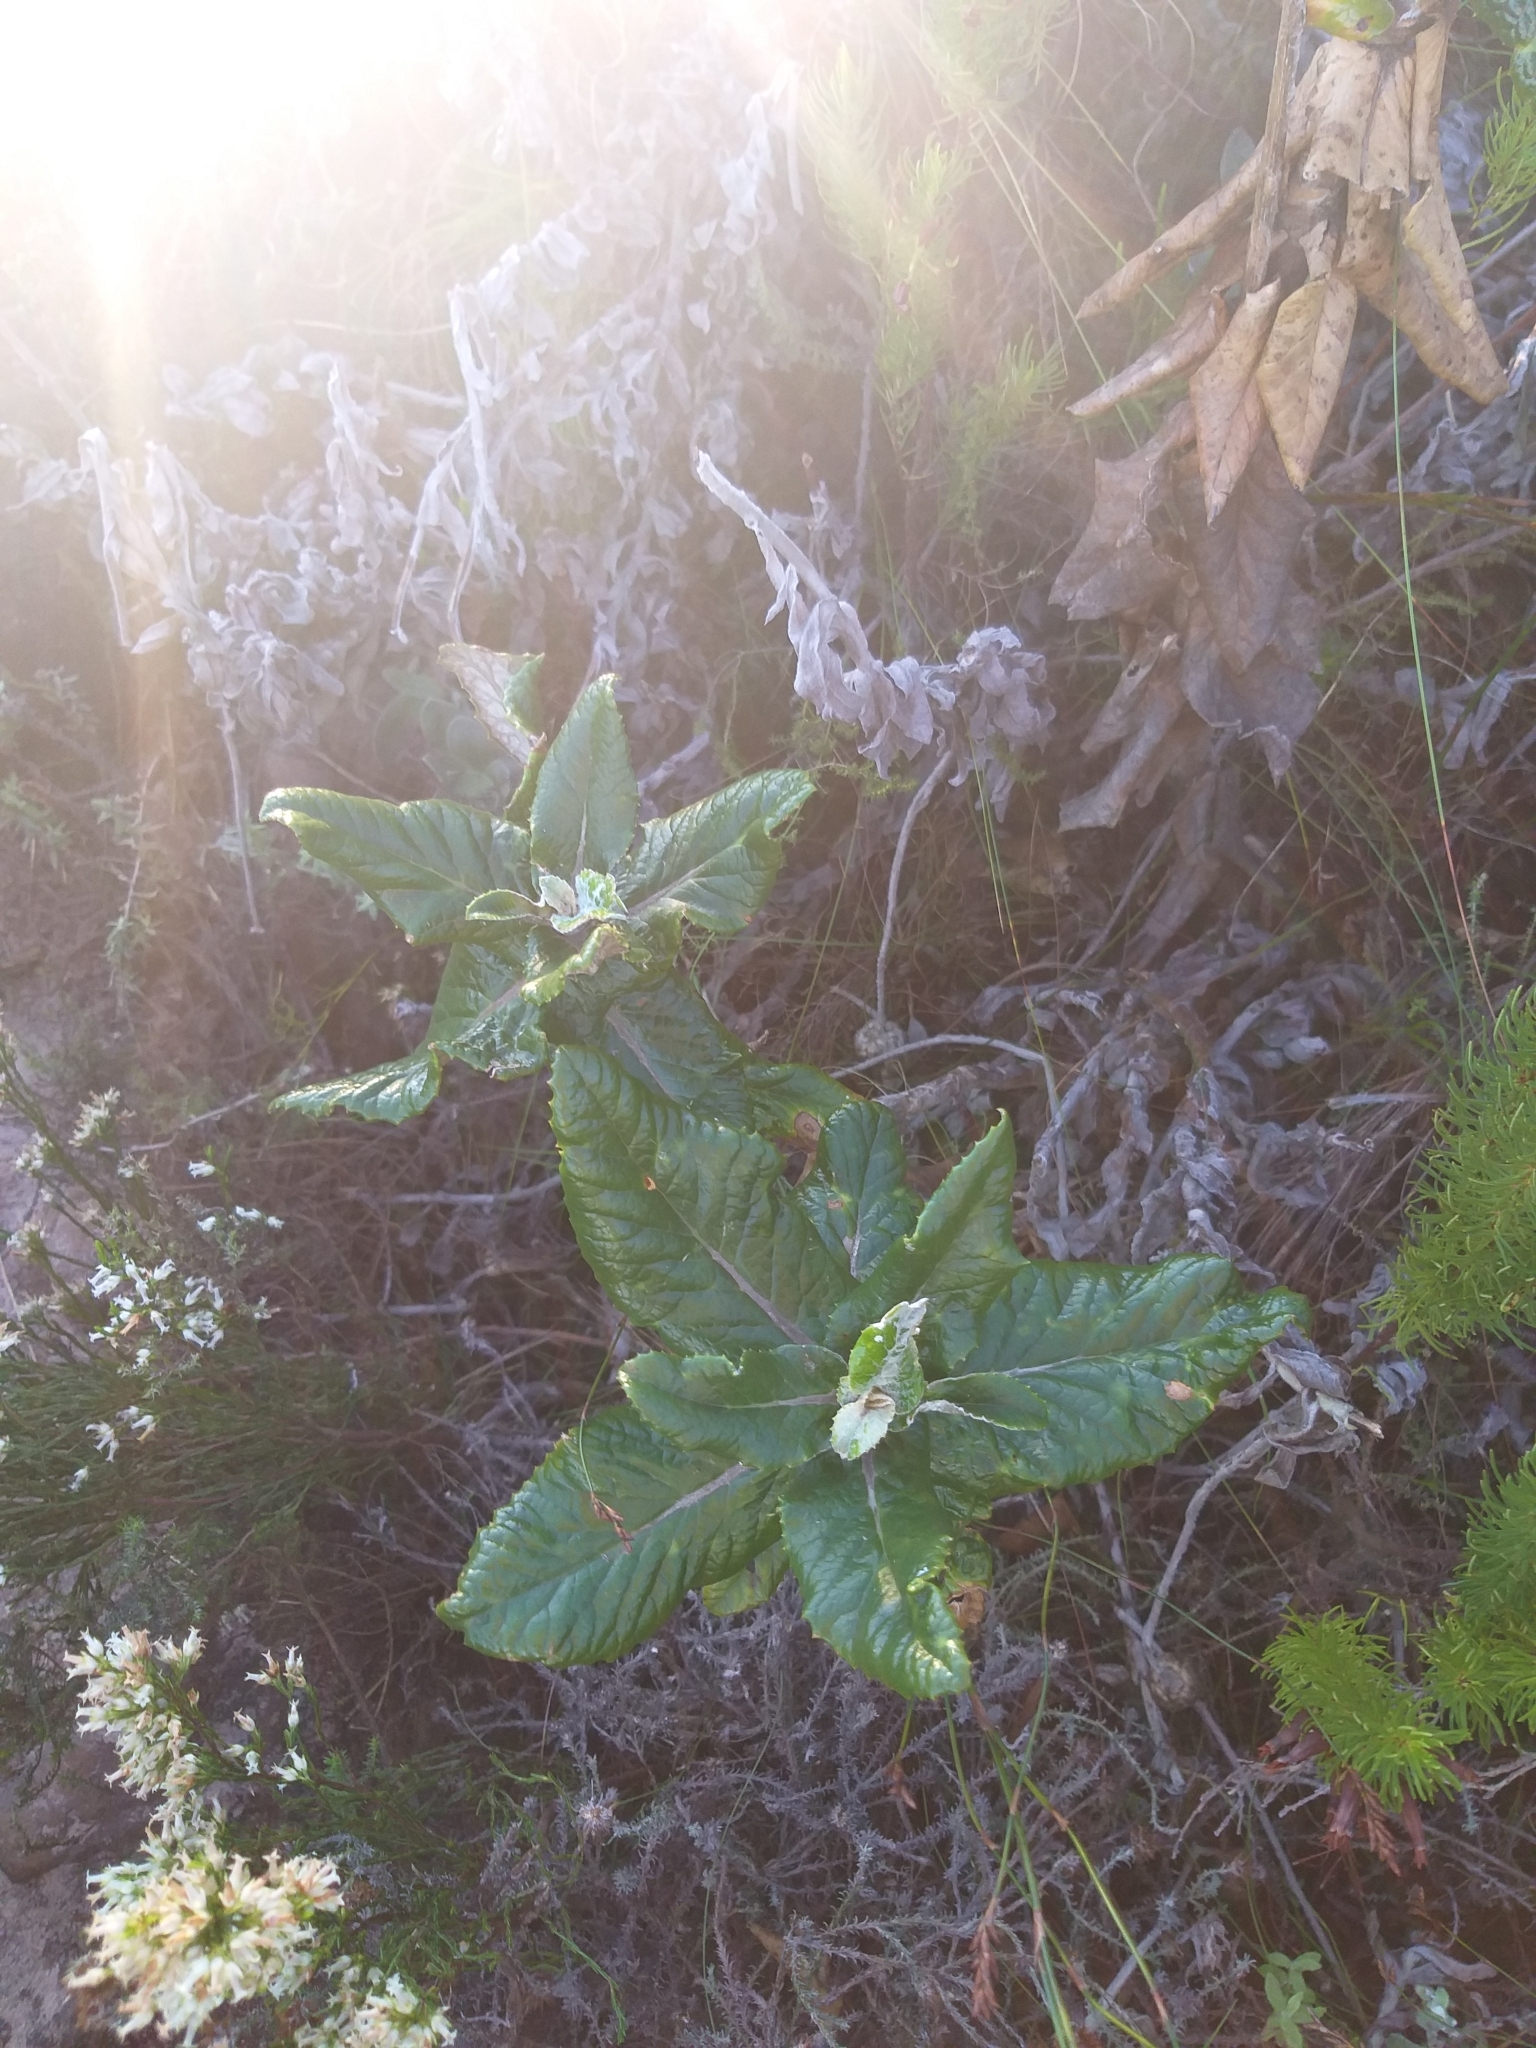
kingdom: Plantae
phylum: Tracheophyta
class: Magnoliopsida
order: Apiales
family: Apiaceae
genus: Hermas
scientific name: Hermas villosa
